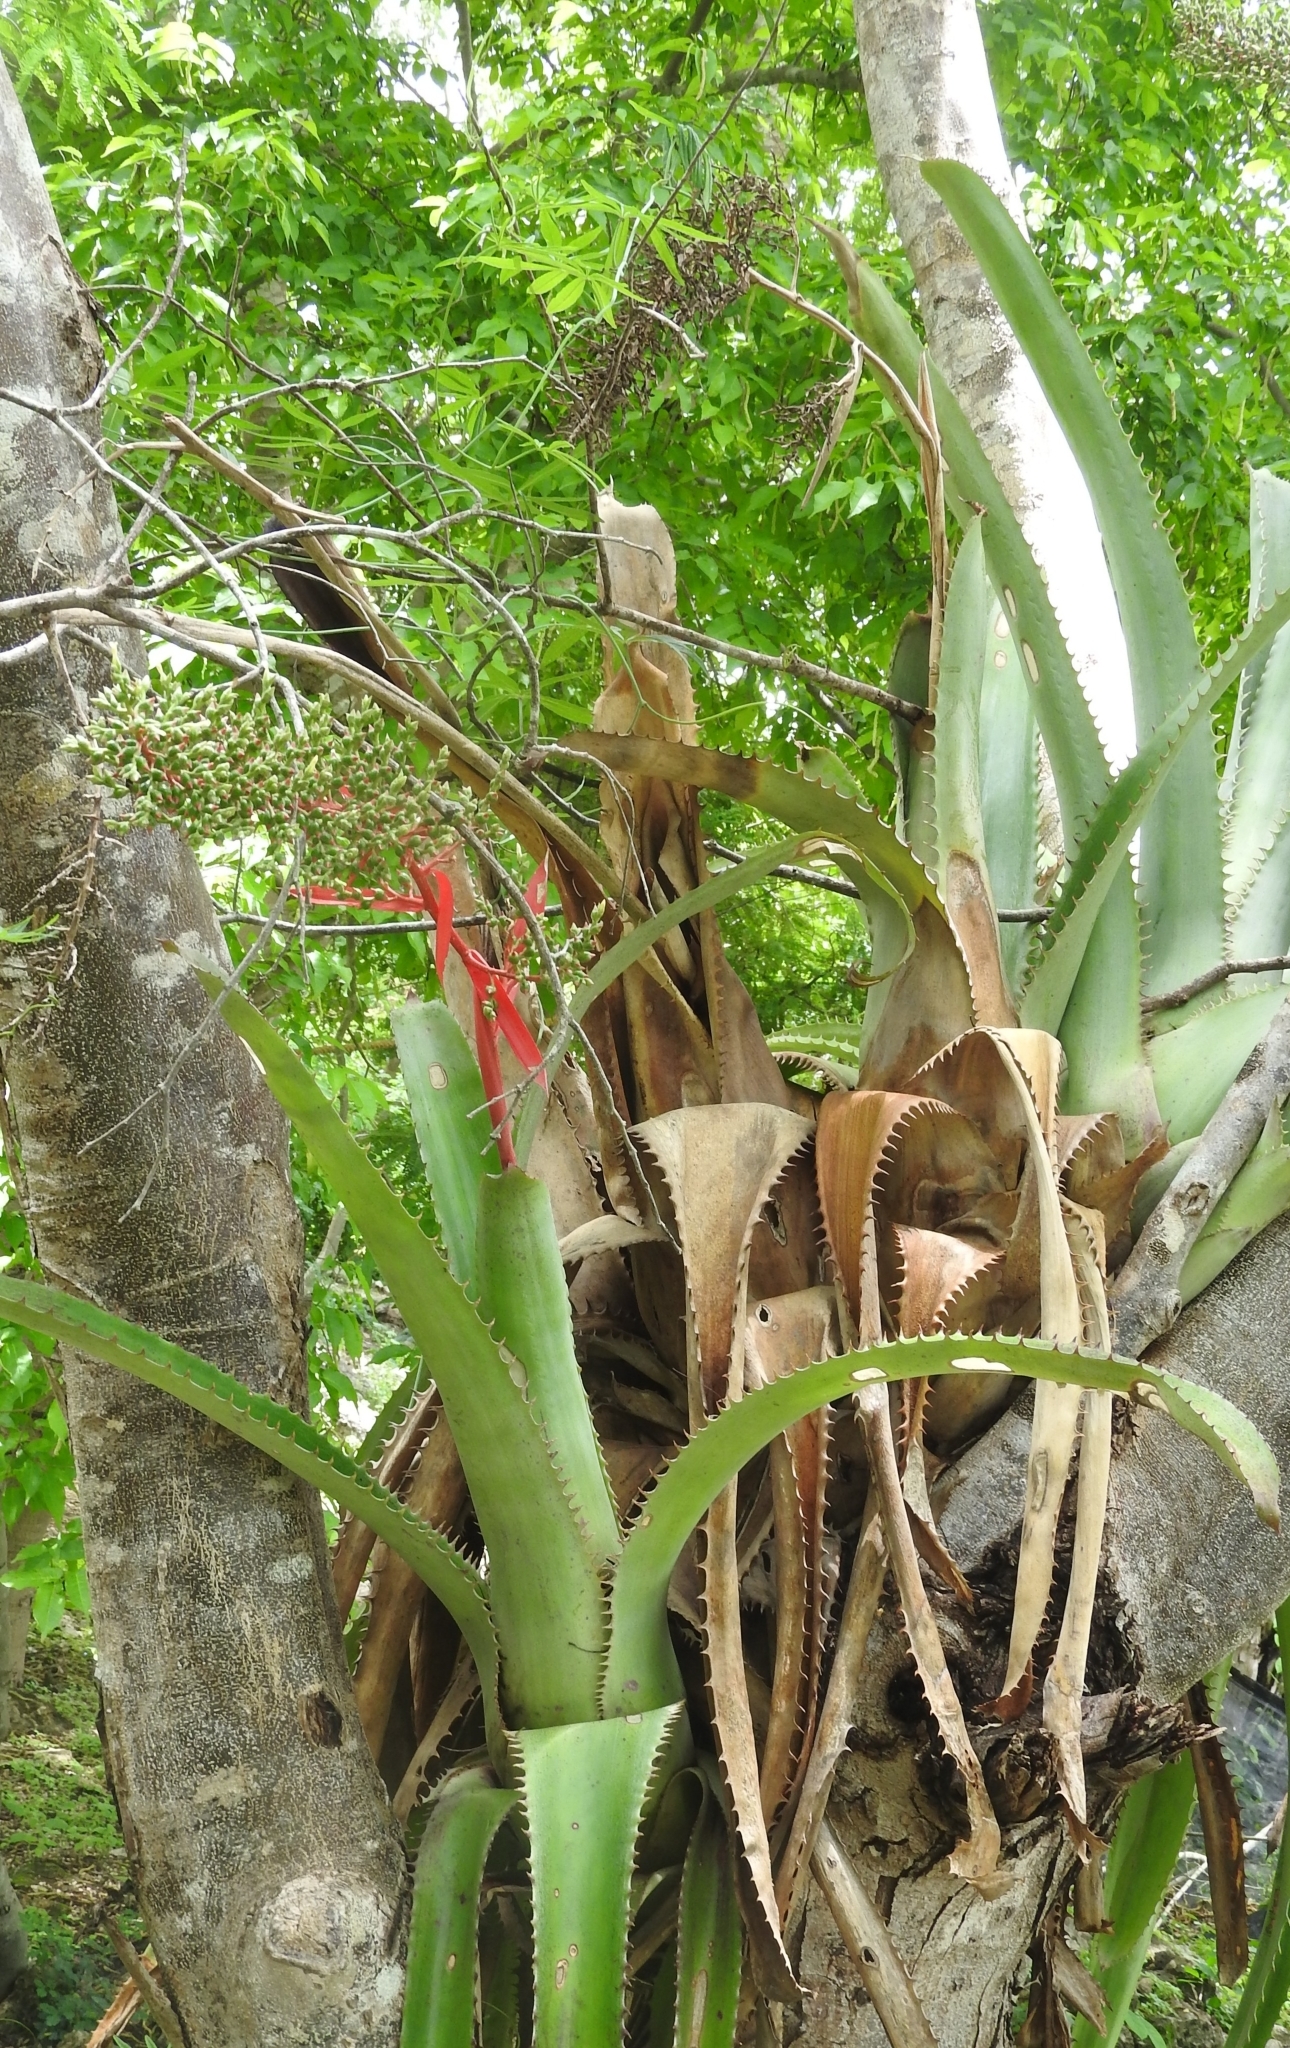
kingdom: Plantae
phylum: Tracheophyta
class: Liliopsida
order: Poales
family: Bromeliaceae
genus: Aechmea
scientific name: Aechmea bracteata
